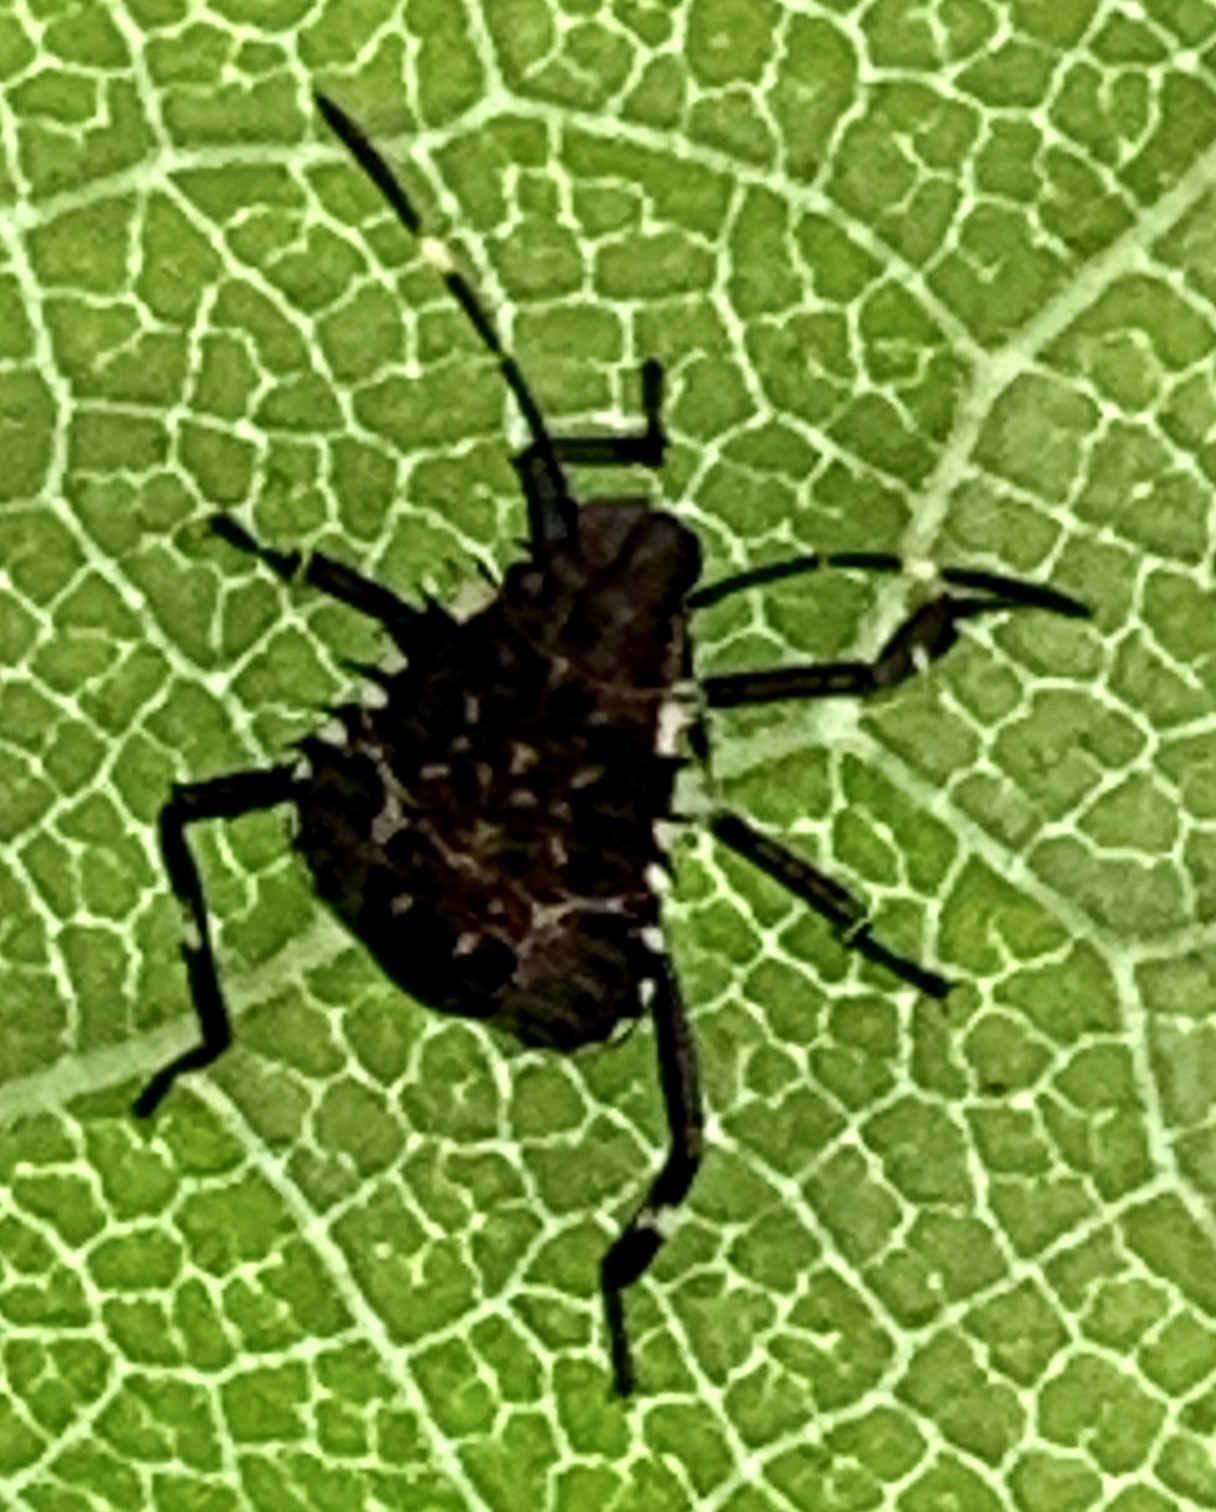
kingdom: Animalia
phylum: Arthropoda
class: Insecta
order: Hemiptera
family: Pentatomidae
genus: Halyomorpha
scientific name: Halyomorpha halys
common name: Brown marmorated stink bug
